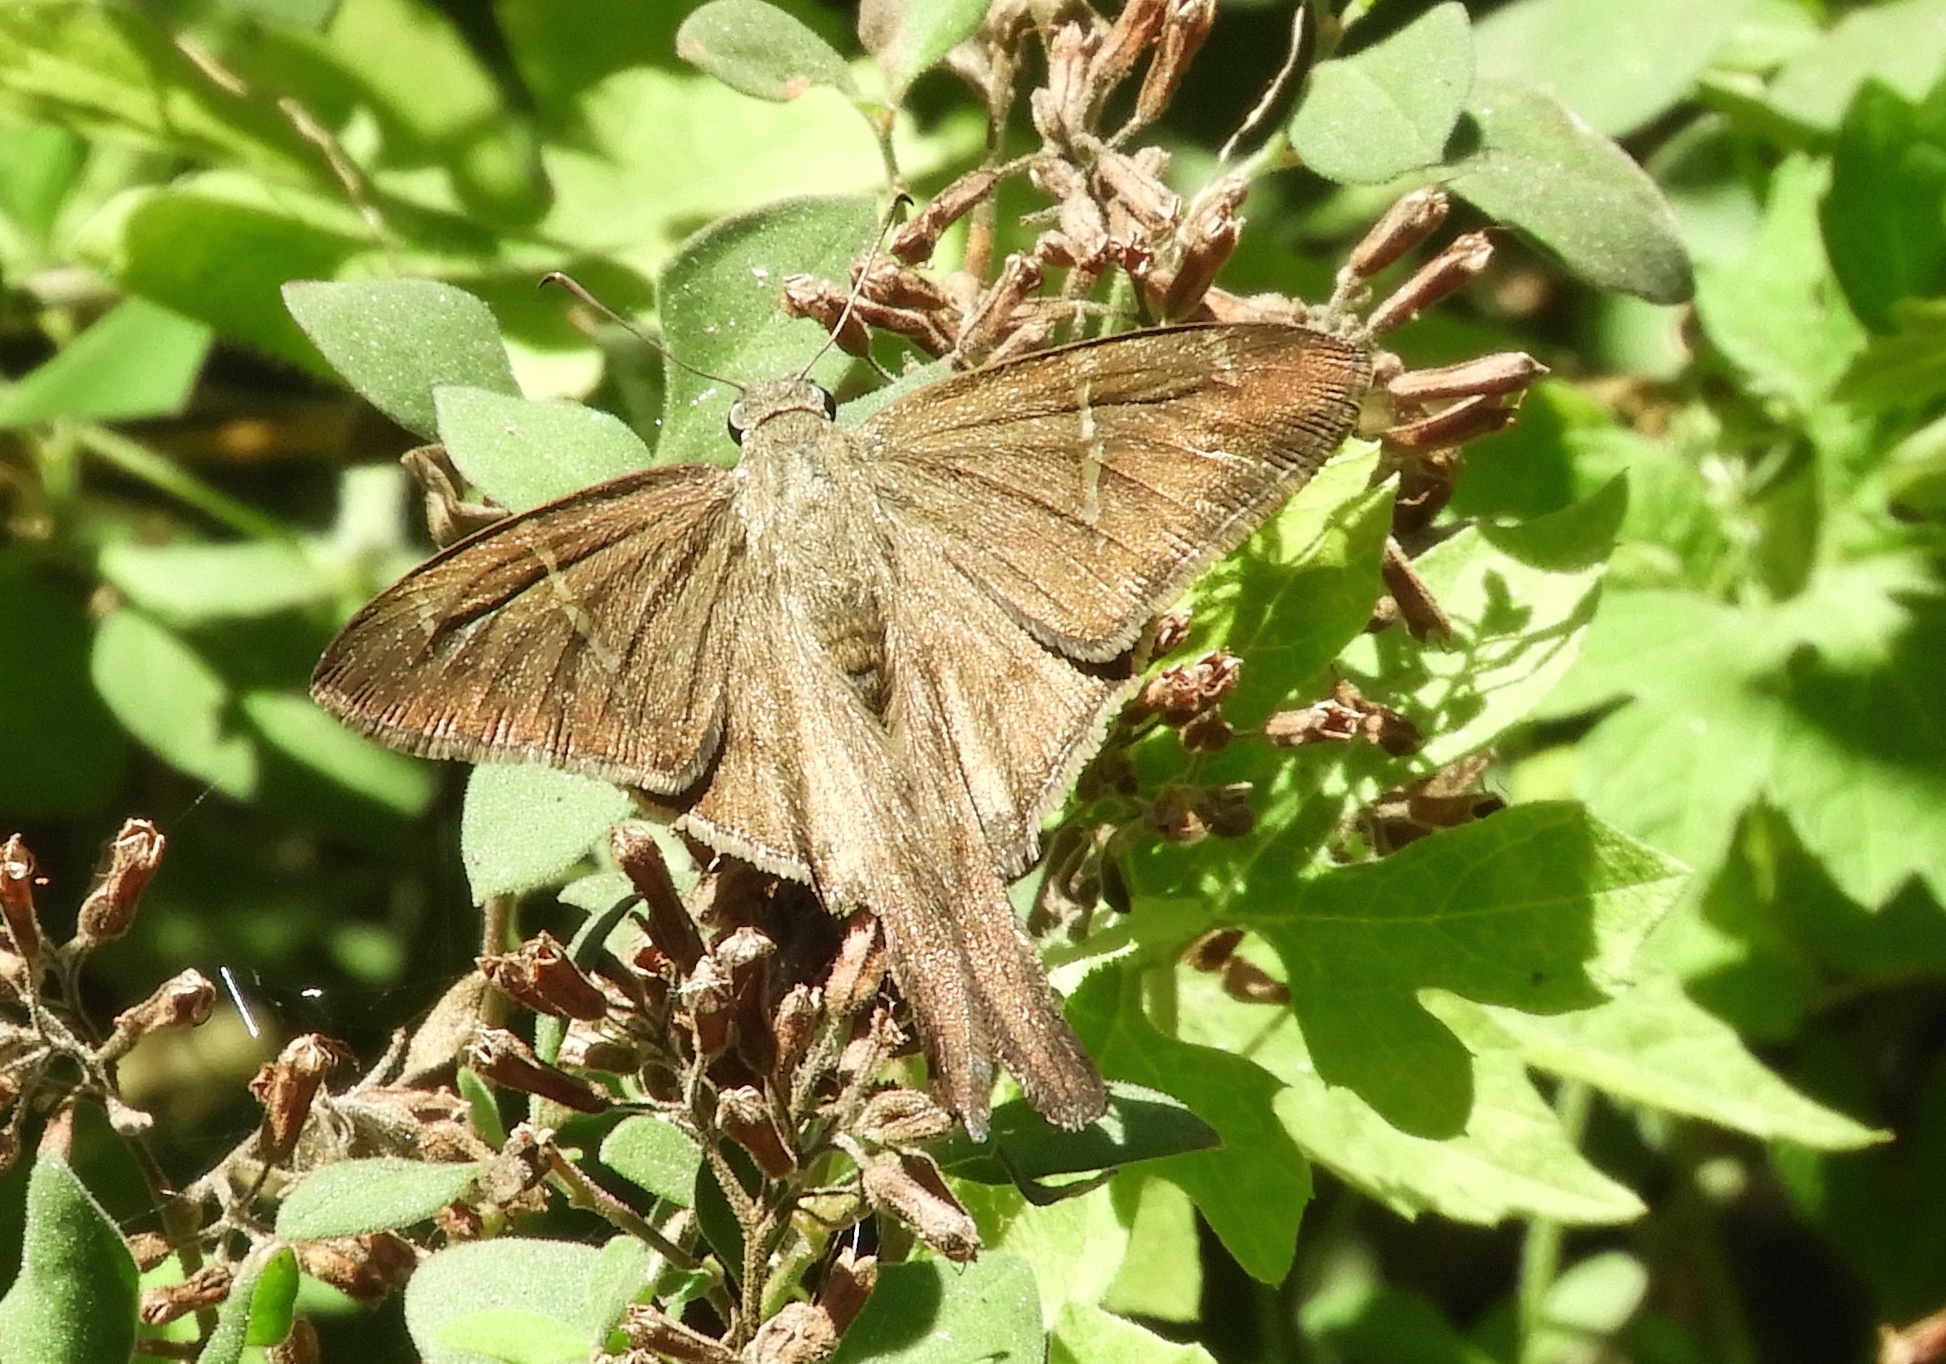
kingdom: Animalia
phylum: Arthropoda
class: Insecta
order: Lepidoptera
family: Hesperiidae
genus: Urbanus
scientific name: Urbanus procne
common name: Brown longtail
